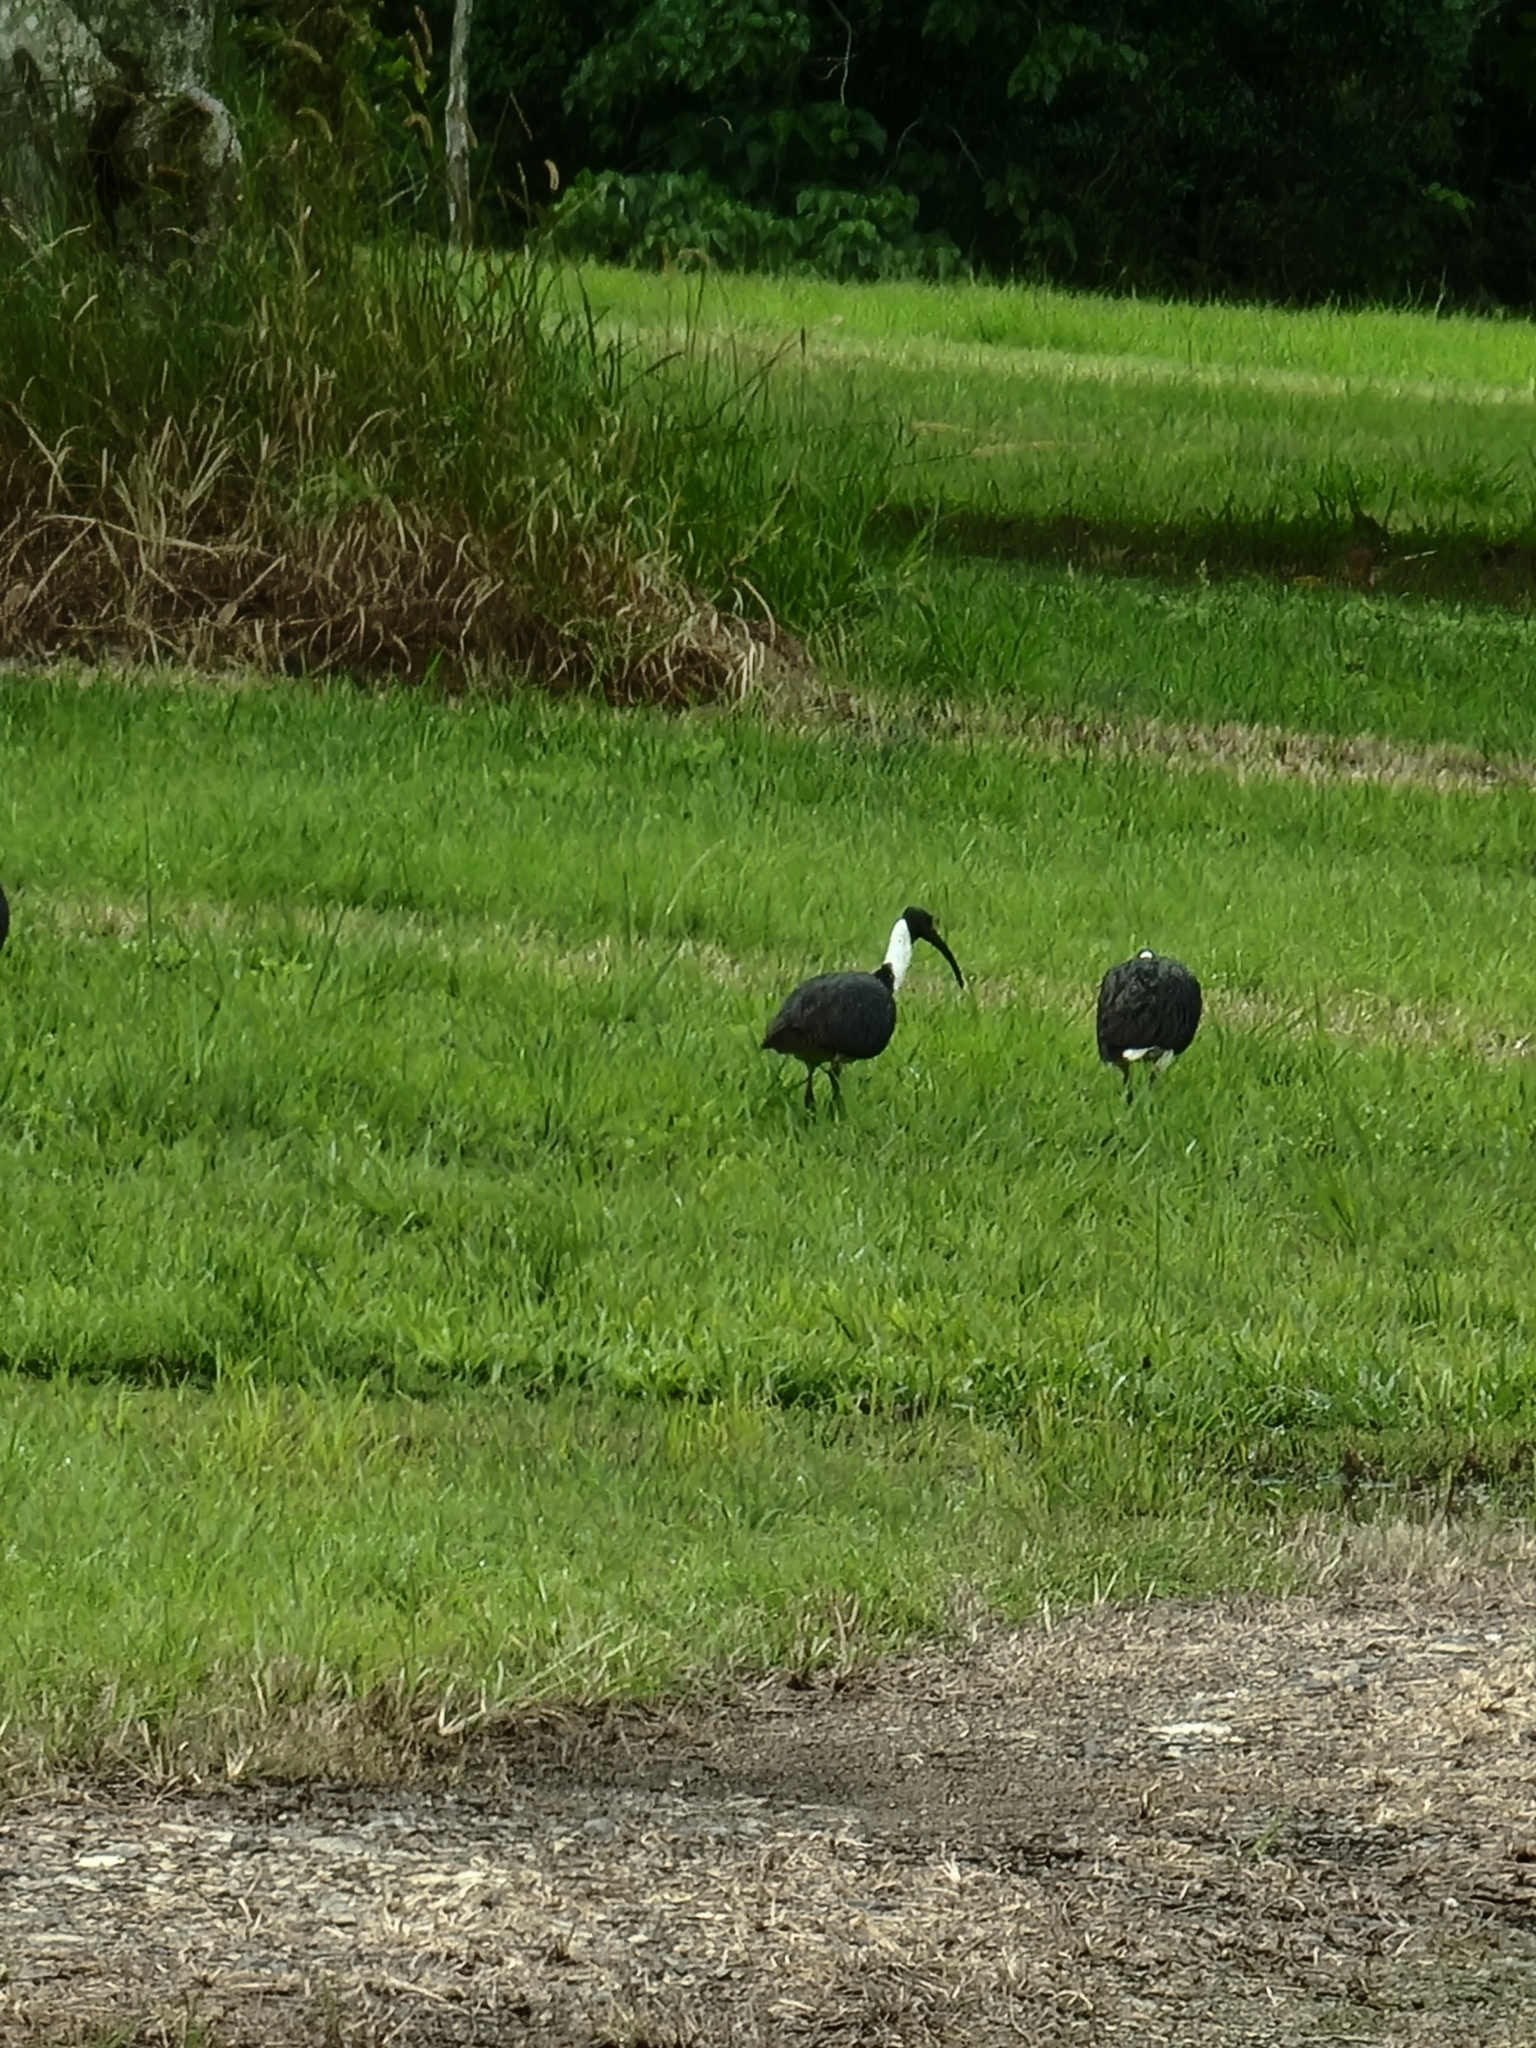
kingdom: Animalia
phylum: Chordata
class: Aves
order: Pelecaniformes
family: Threskiornithidae
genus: Threskiornis
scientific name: Threskiornis spinicollis
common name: Straw-necked ibis
